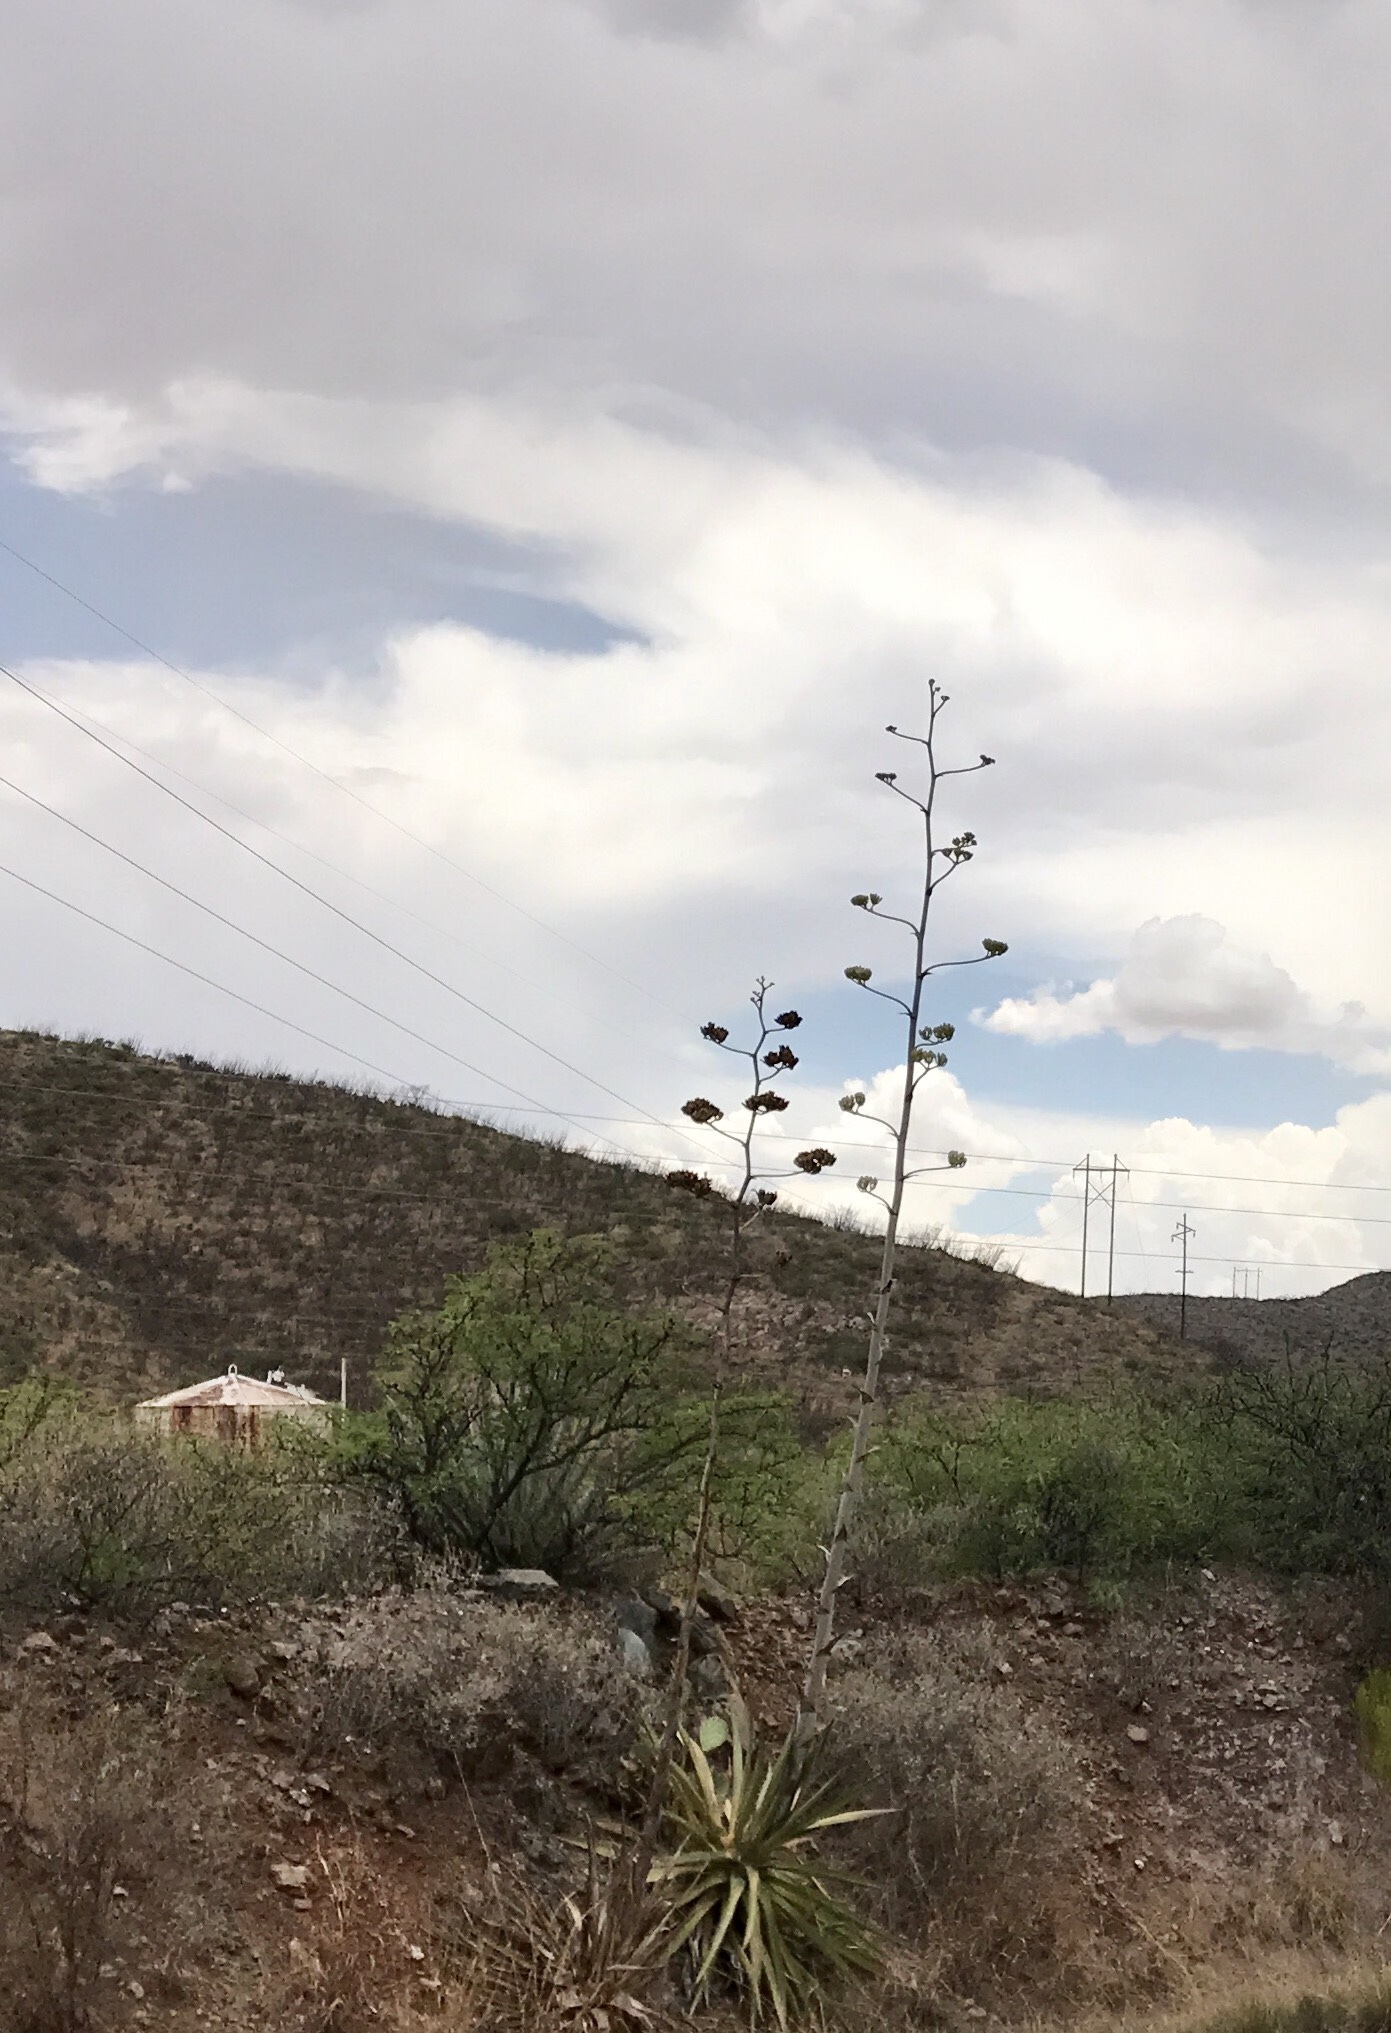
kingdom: Plantae
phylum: Tracheophyta
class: Liliopsida
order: Asparagales
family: Asparagaceae
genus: Agave
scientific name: Agave palmeri
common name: Palmer agave
